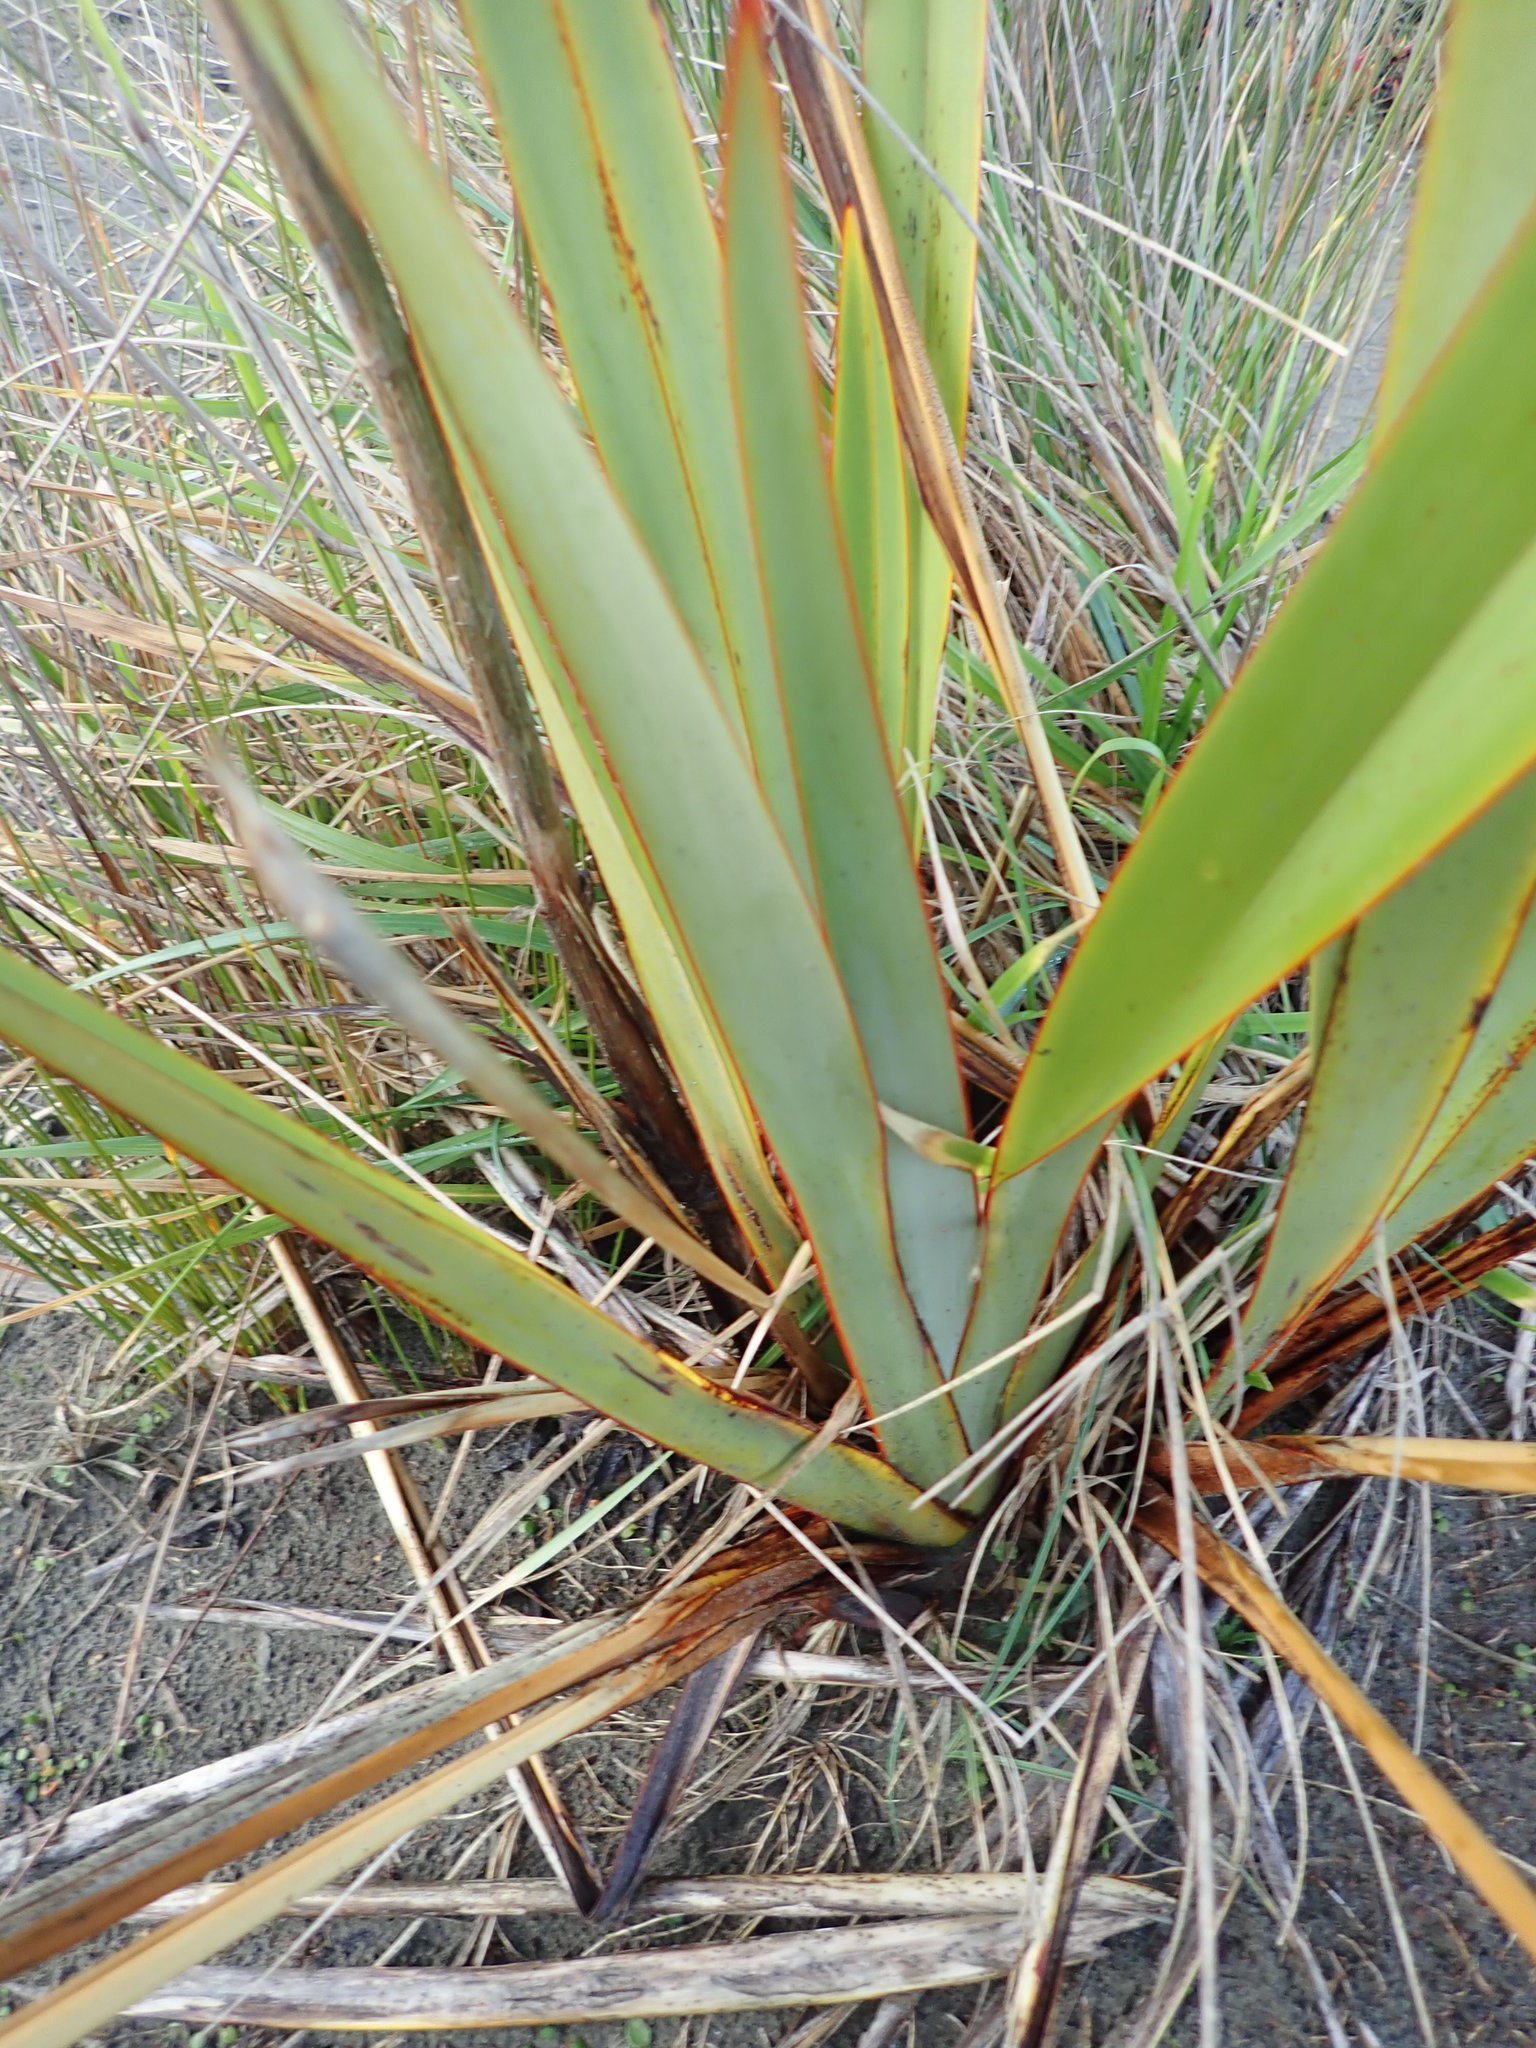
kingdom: Plantae
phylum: Tracheophyta
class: Liliopsida
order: Asparagales
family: Asphodelaceae
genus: Phormium
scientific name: Phormium tenax
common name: New zealand flax
